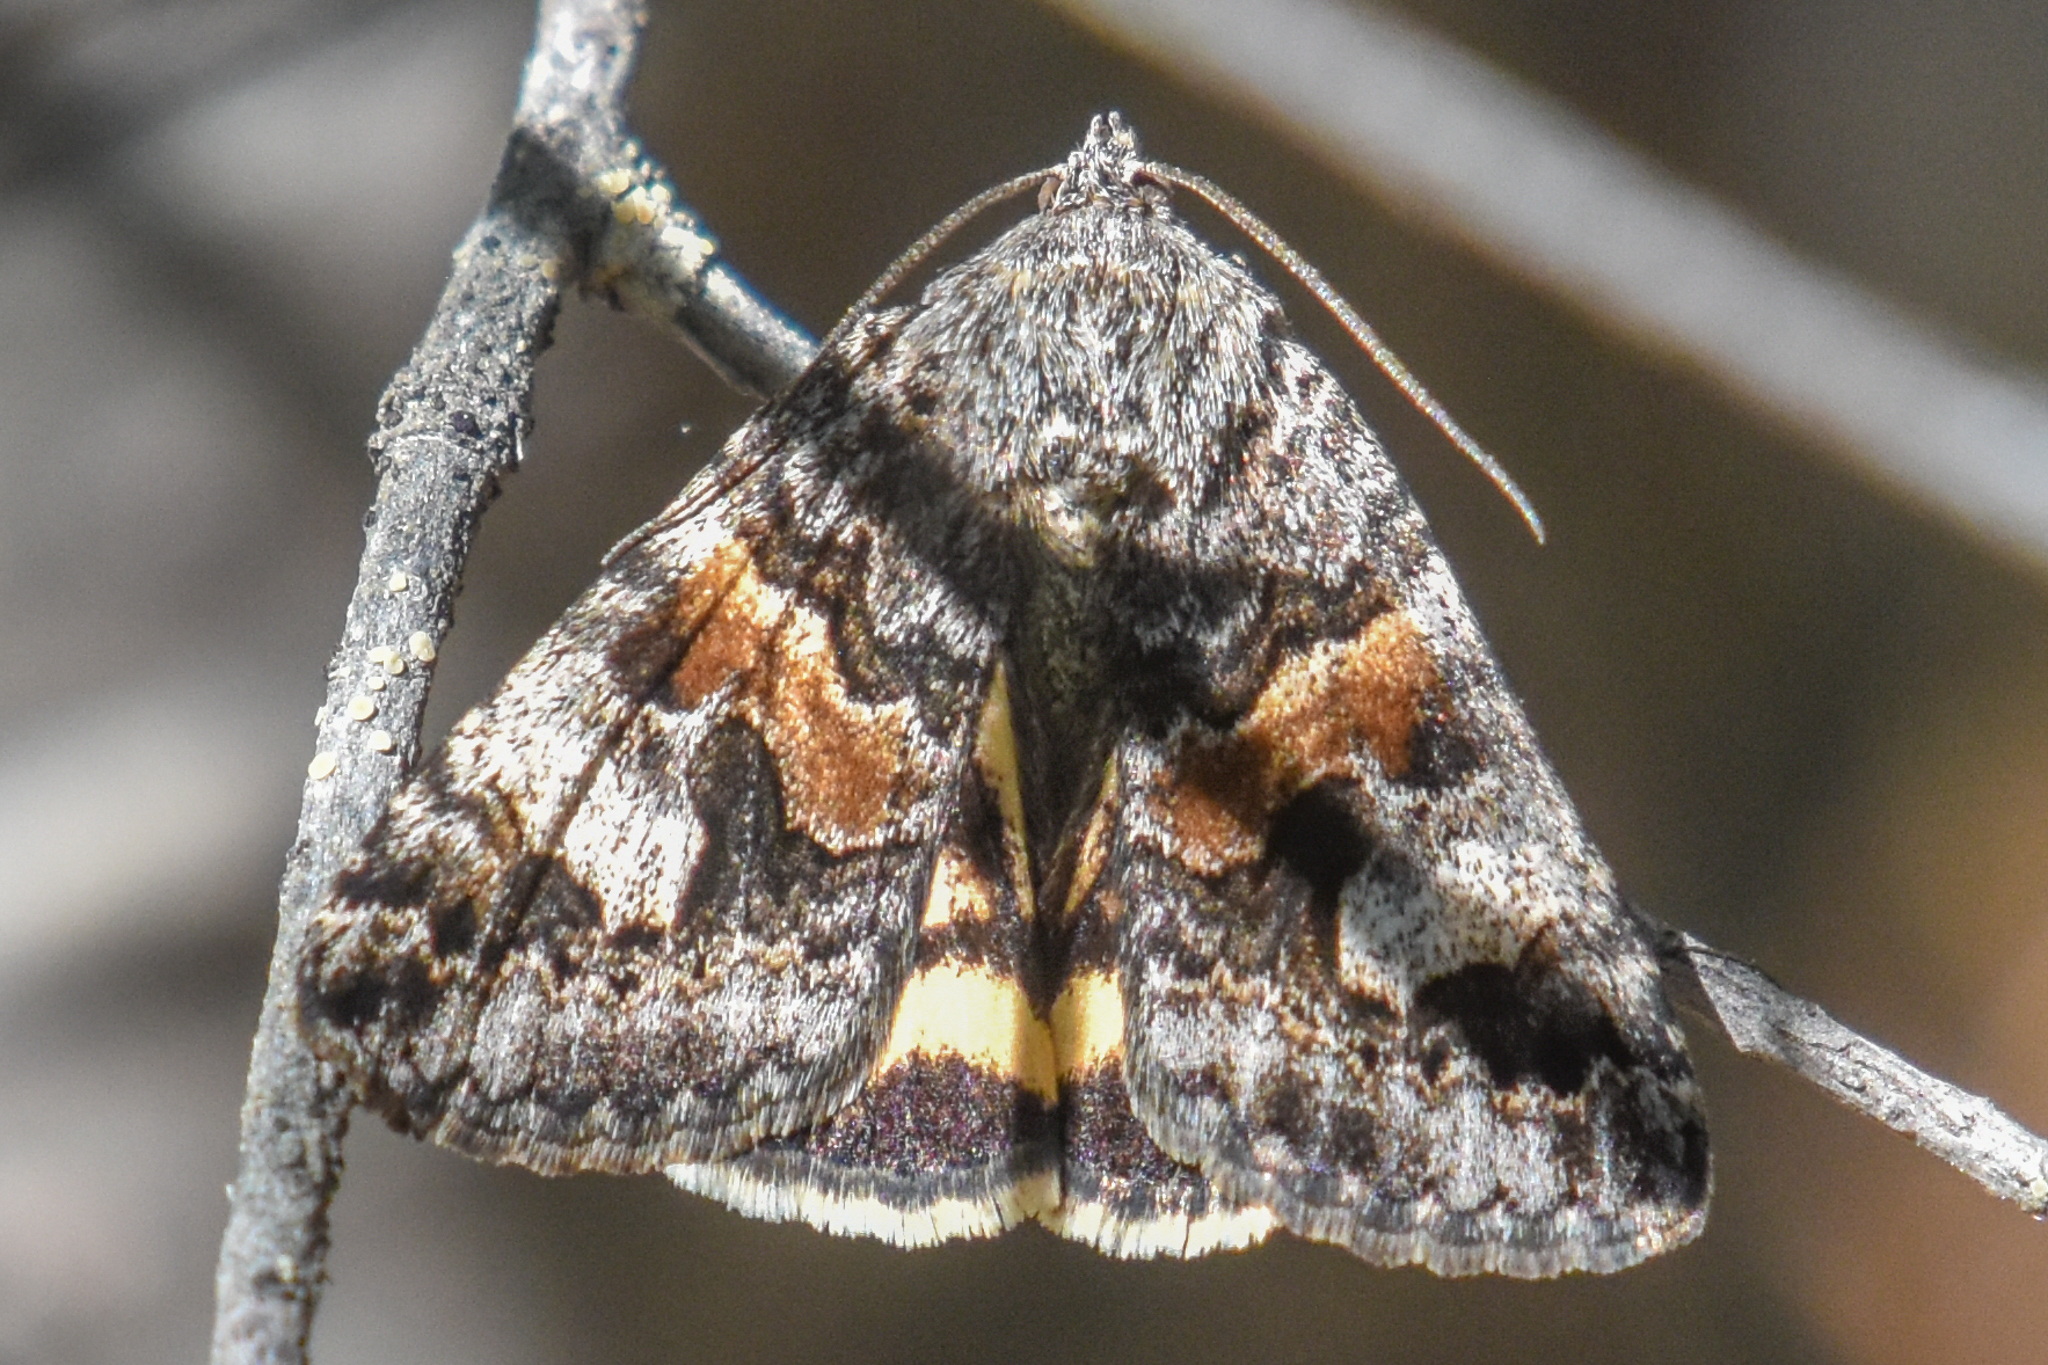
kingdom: Animalia
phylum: Arthropoda
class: Insecta
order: Lepidoptera
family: Erebidae
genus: Drasteria
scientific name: Drasteria hudsonica
